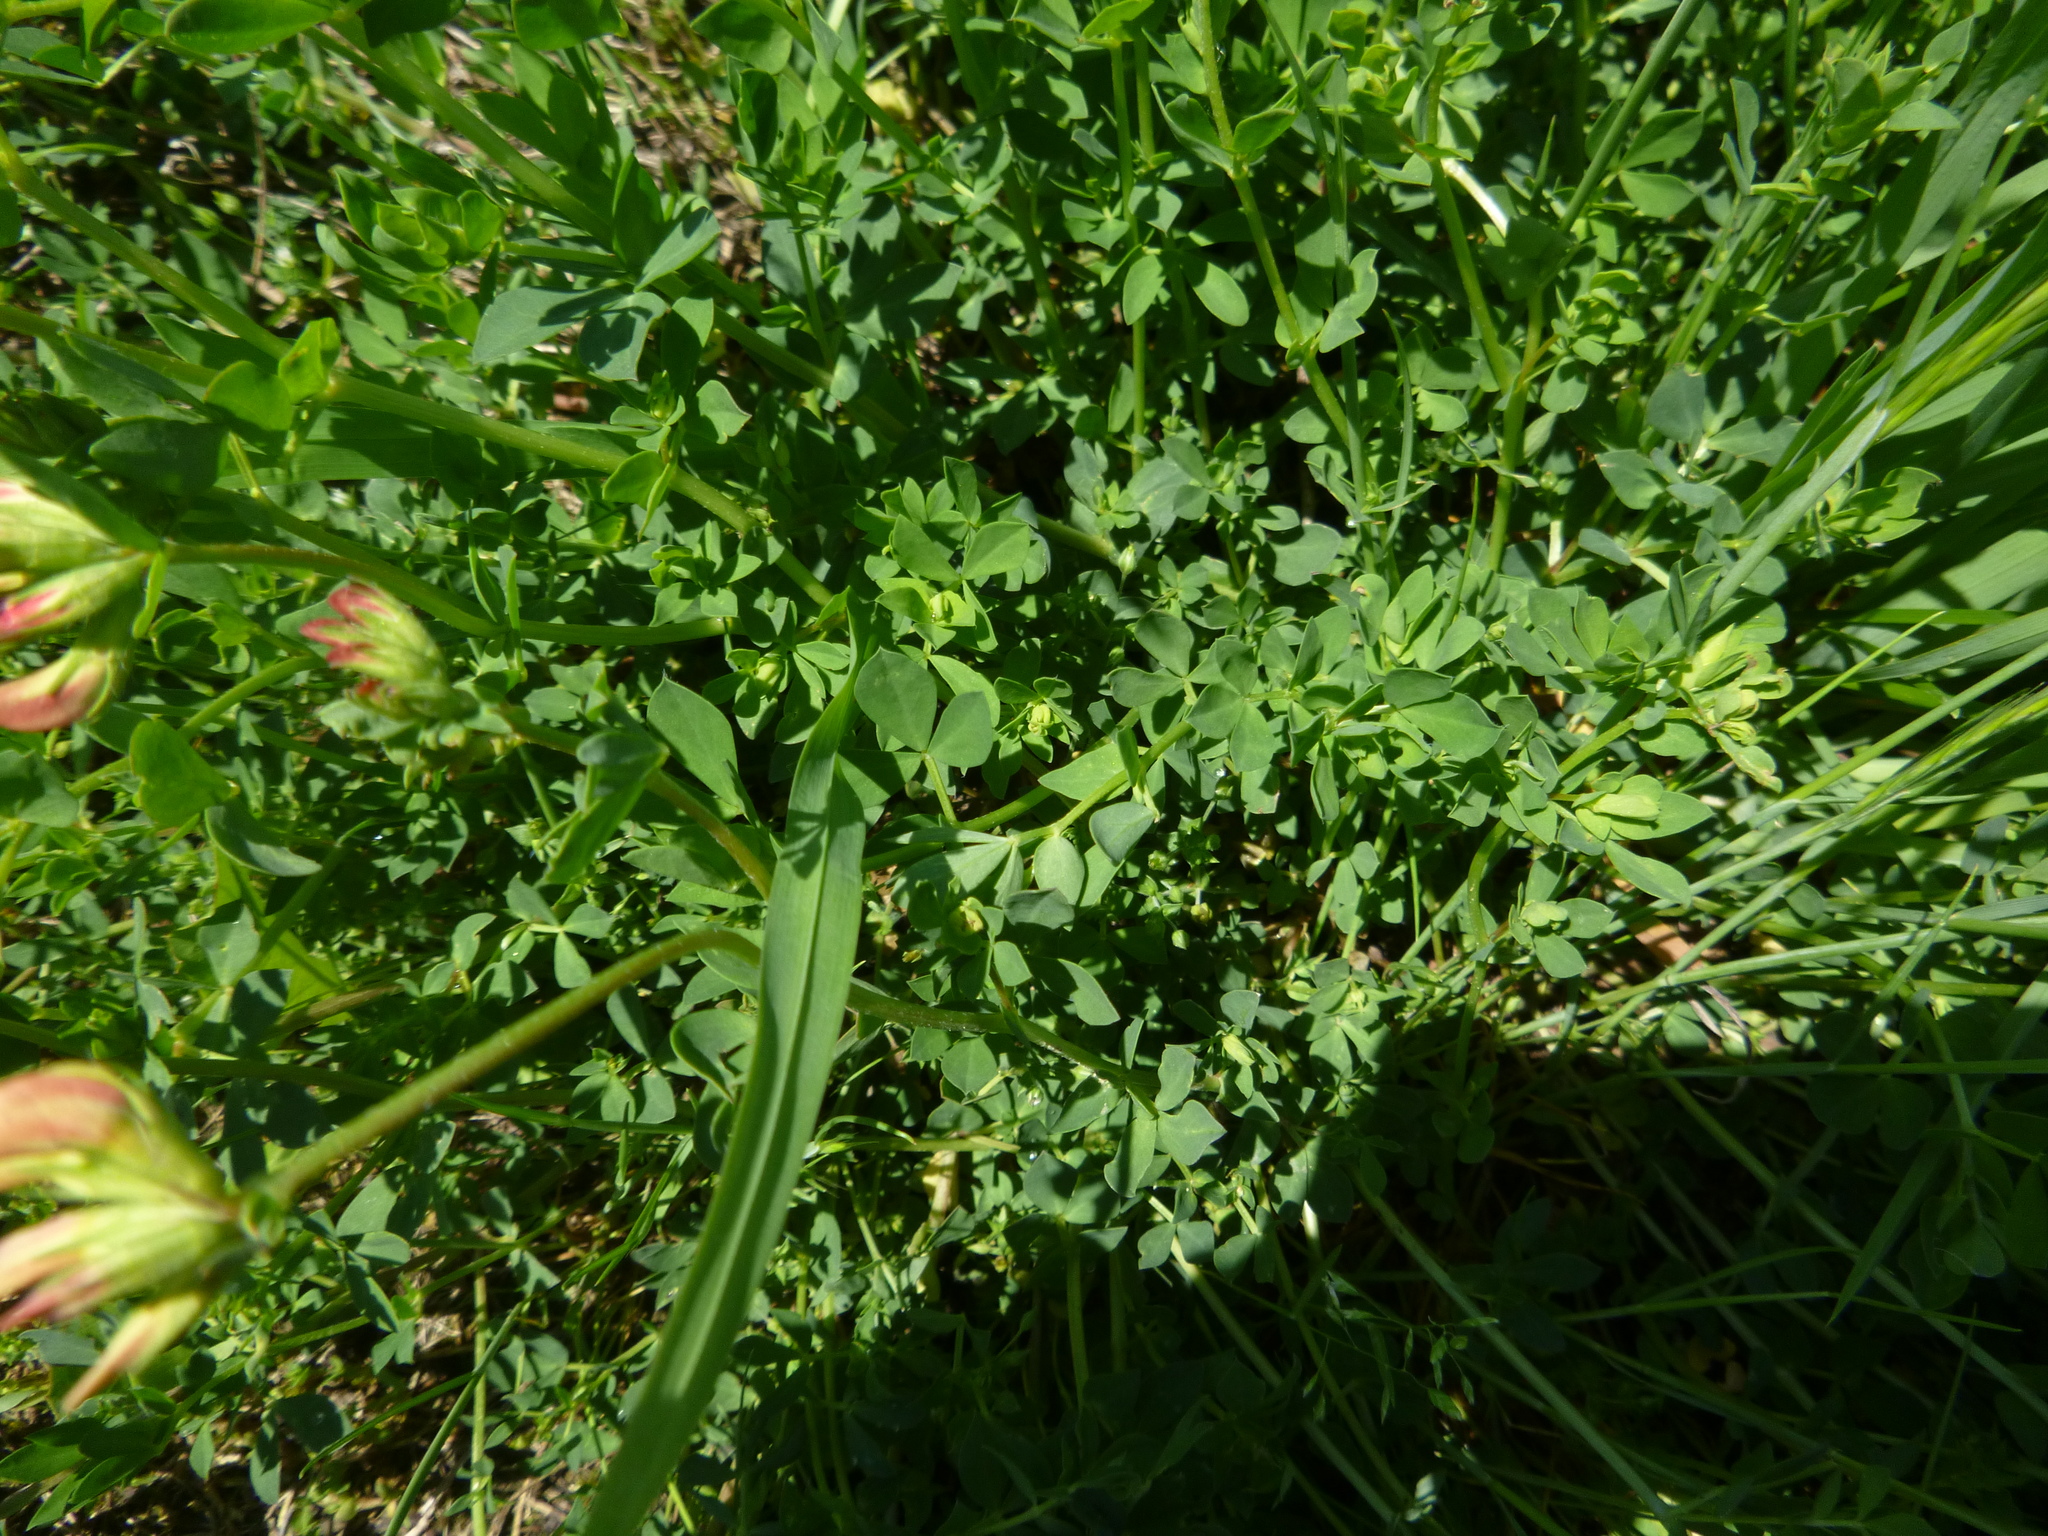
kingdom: Plantae
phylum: Tracheophyta
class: Magnoliopsida
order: Fabales
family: Fabaceae
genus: Lotus
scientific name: Lotus corniculatus
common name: Common bird's-foot-trefoil
